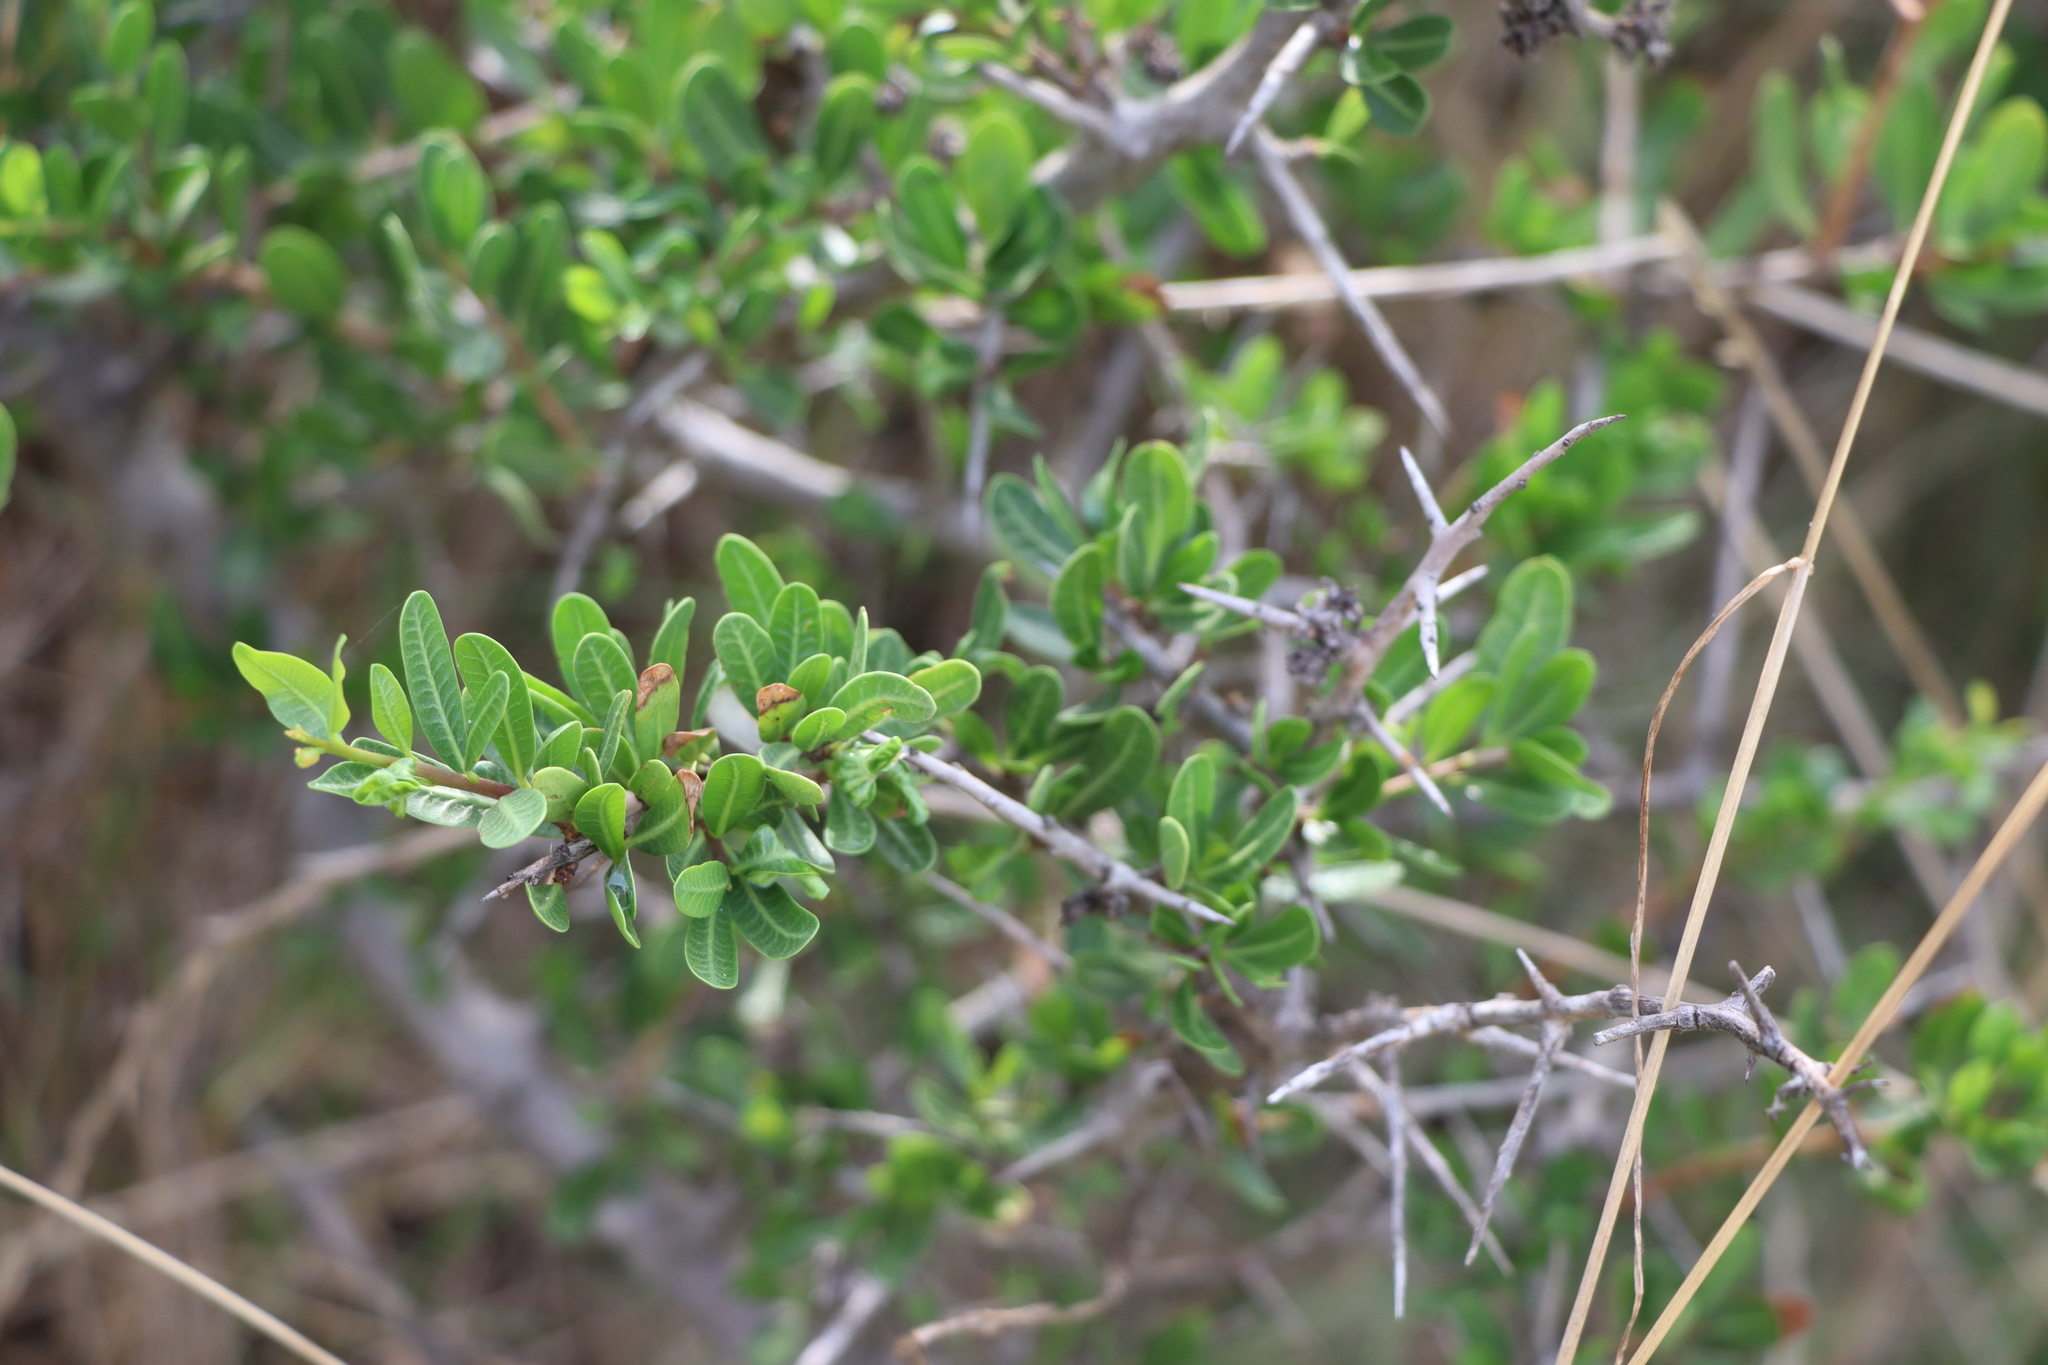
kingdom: Plantae
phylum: Tracheophyta
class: Magnoliopsida
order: Sapindales
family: Anacardiaceae
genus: Schinus
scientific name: Schinus engleri
